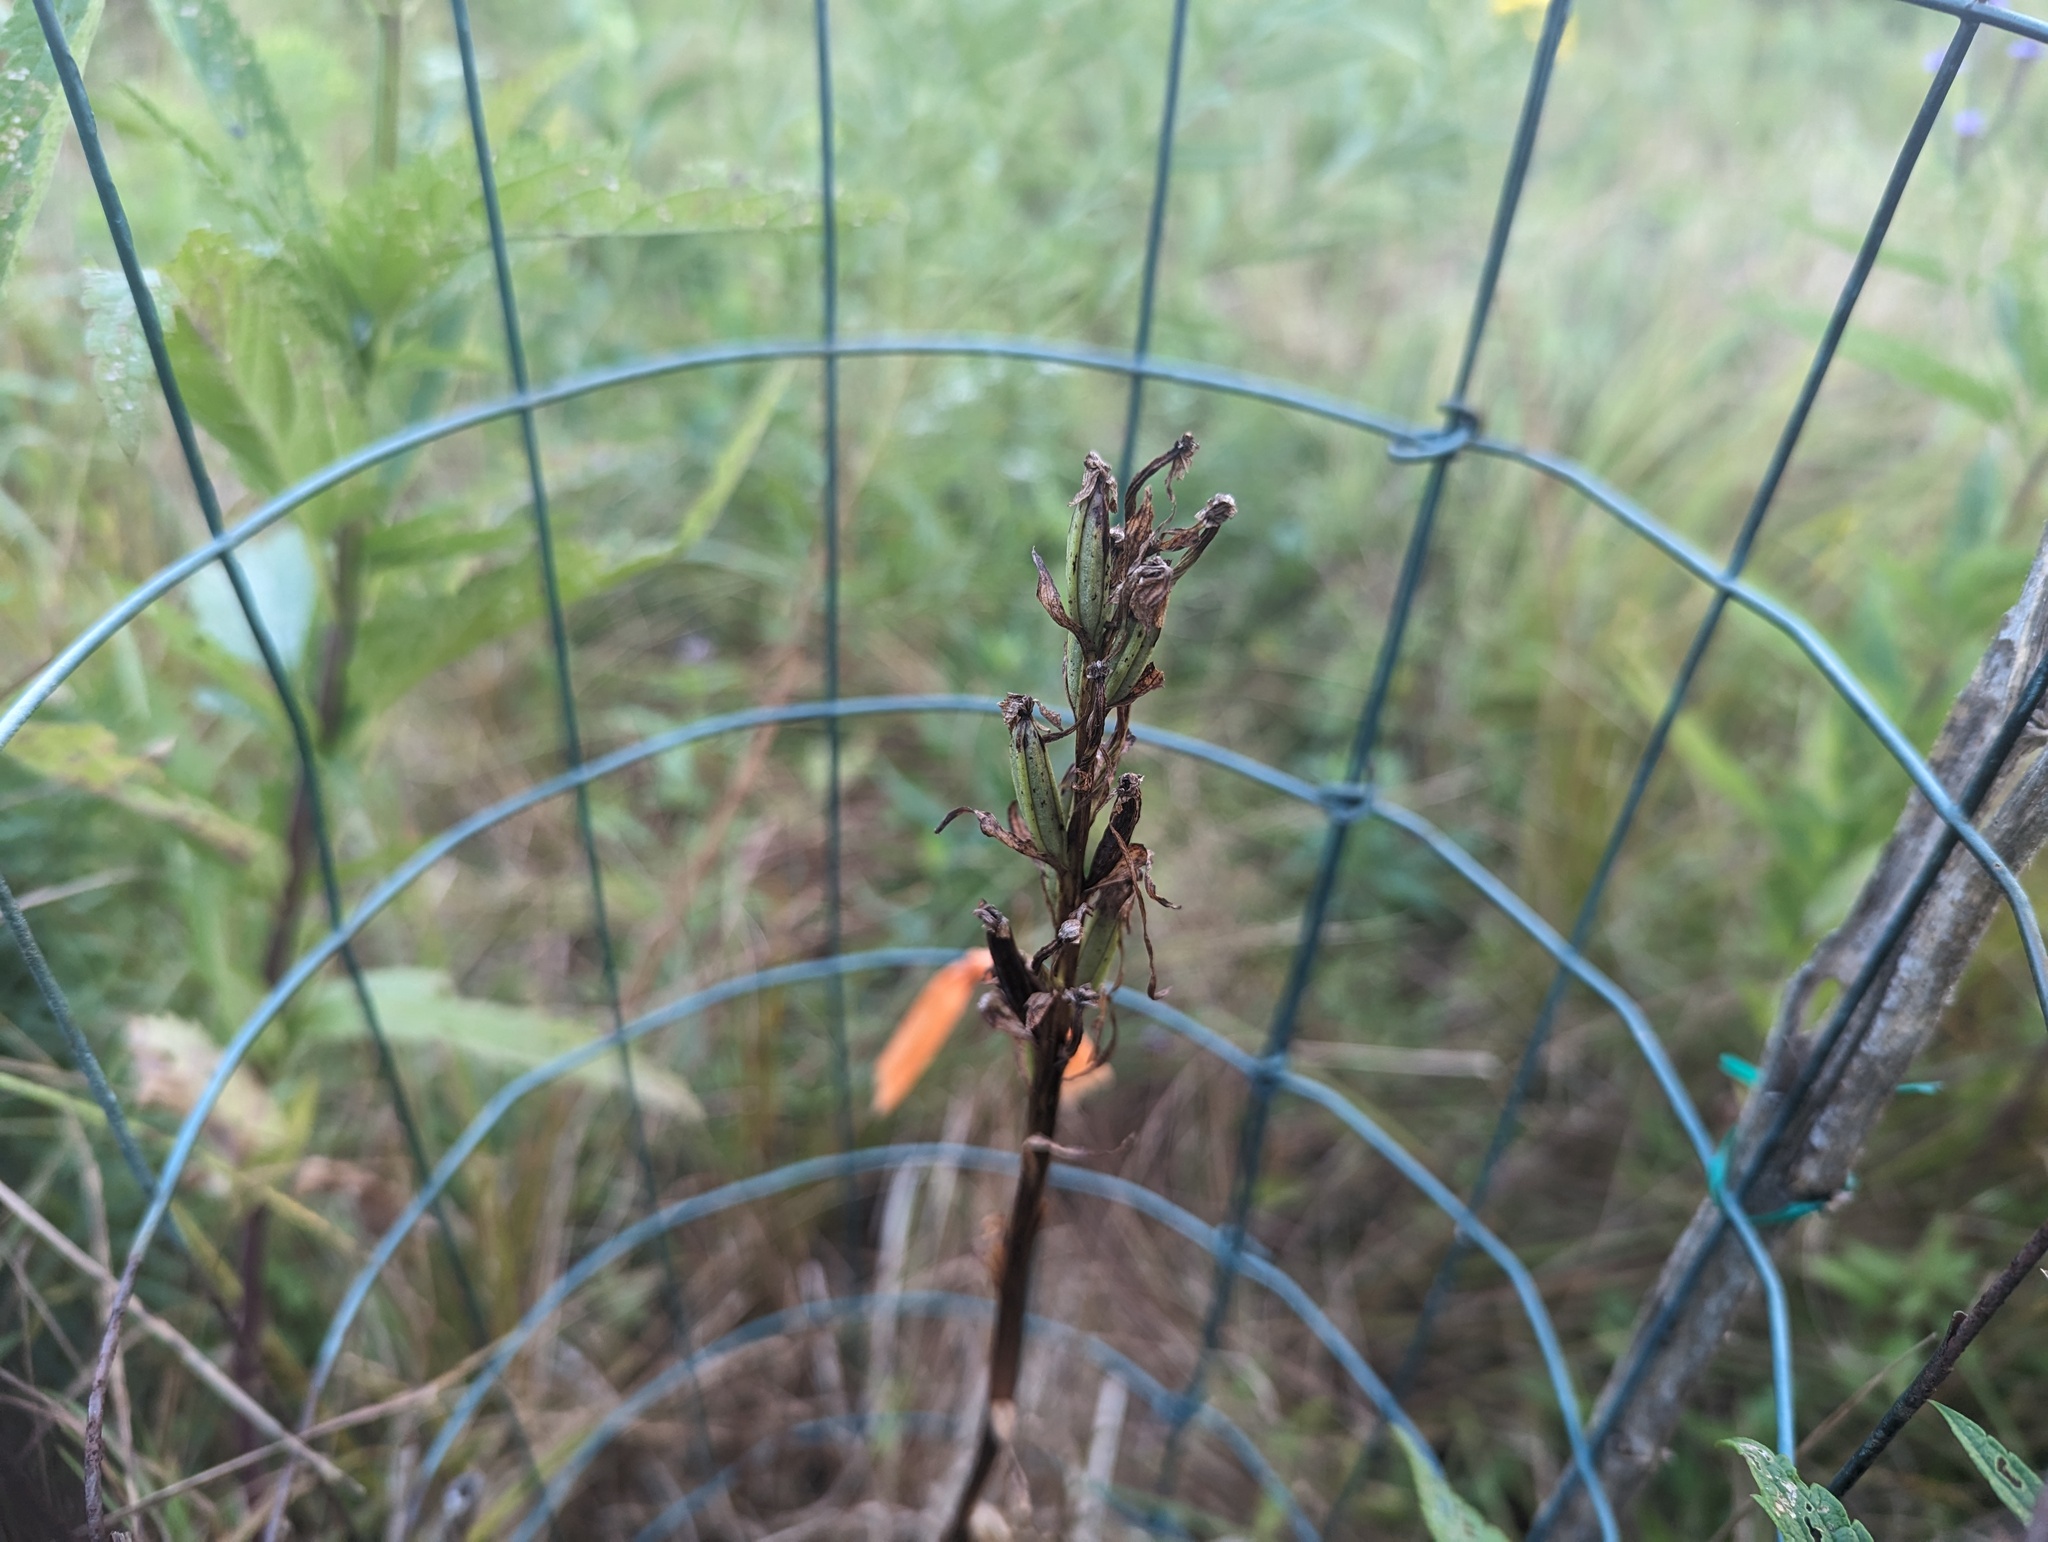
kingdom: Plantae
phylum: Tracheophyta
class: Liliopsida
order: Asparagales
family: Orchidaceae
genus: Platanthera
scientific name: Platanthera leucophaea
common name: Eastern prairie white-fringed orchid
